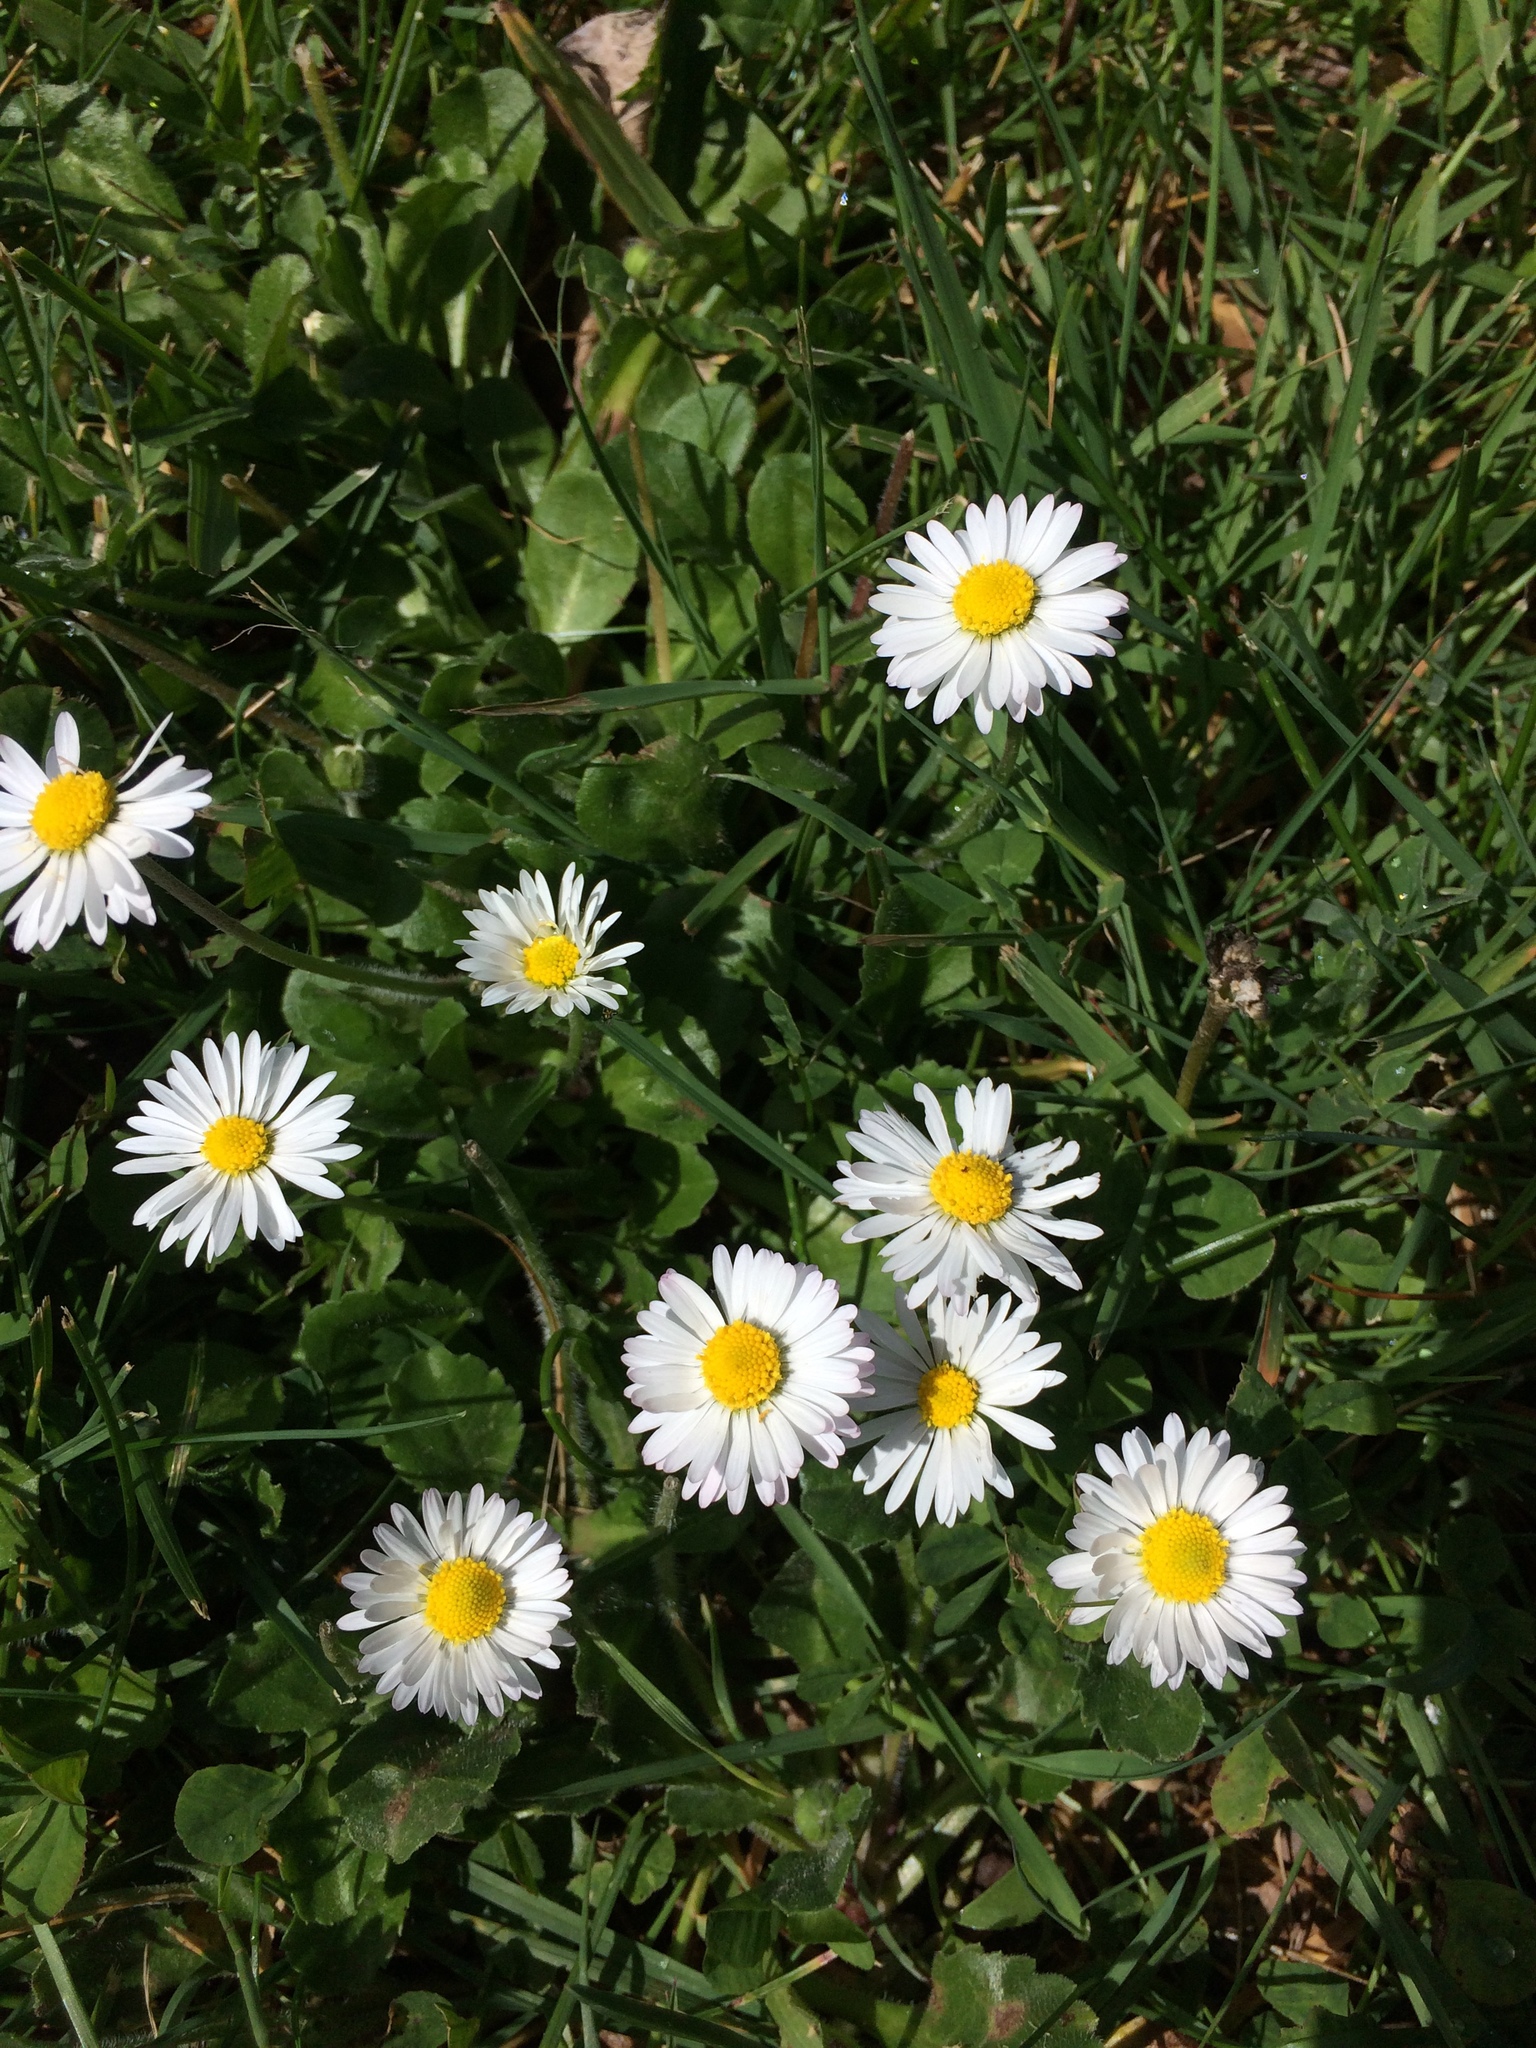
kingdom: Plantae
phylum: Tracheophyta
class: Magnoliopsida
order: Asterales
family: Asteraceae
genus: Bellis
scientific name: Bellis perennis
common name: Lawndaisy
